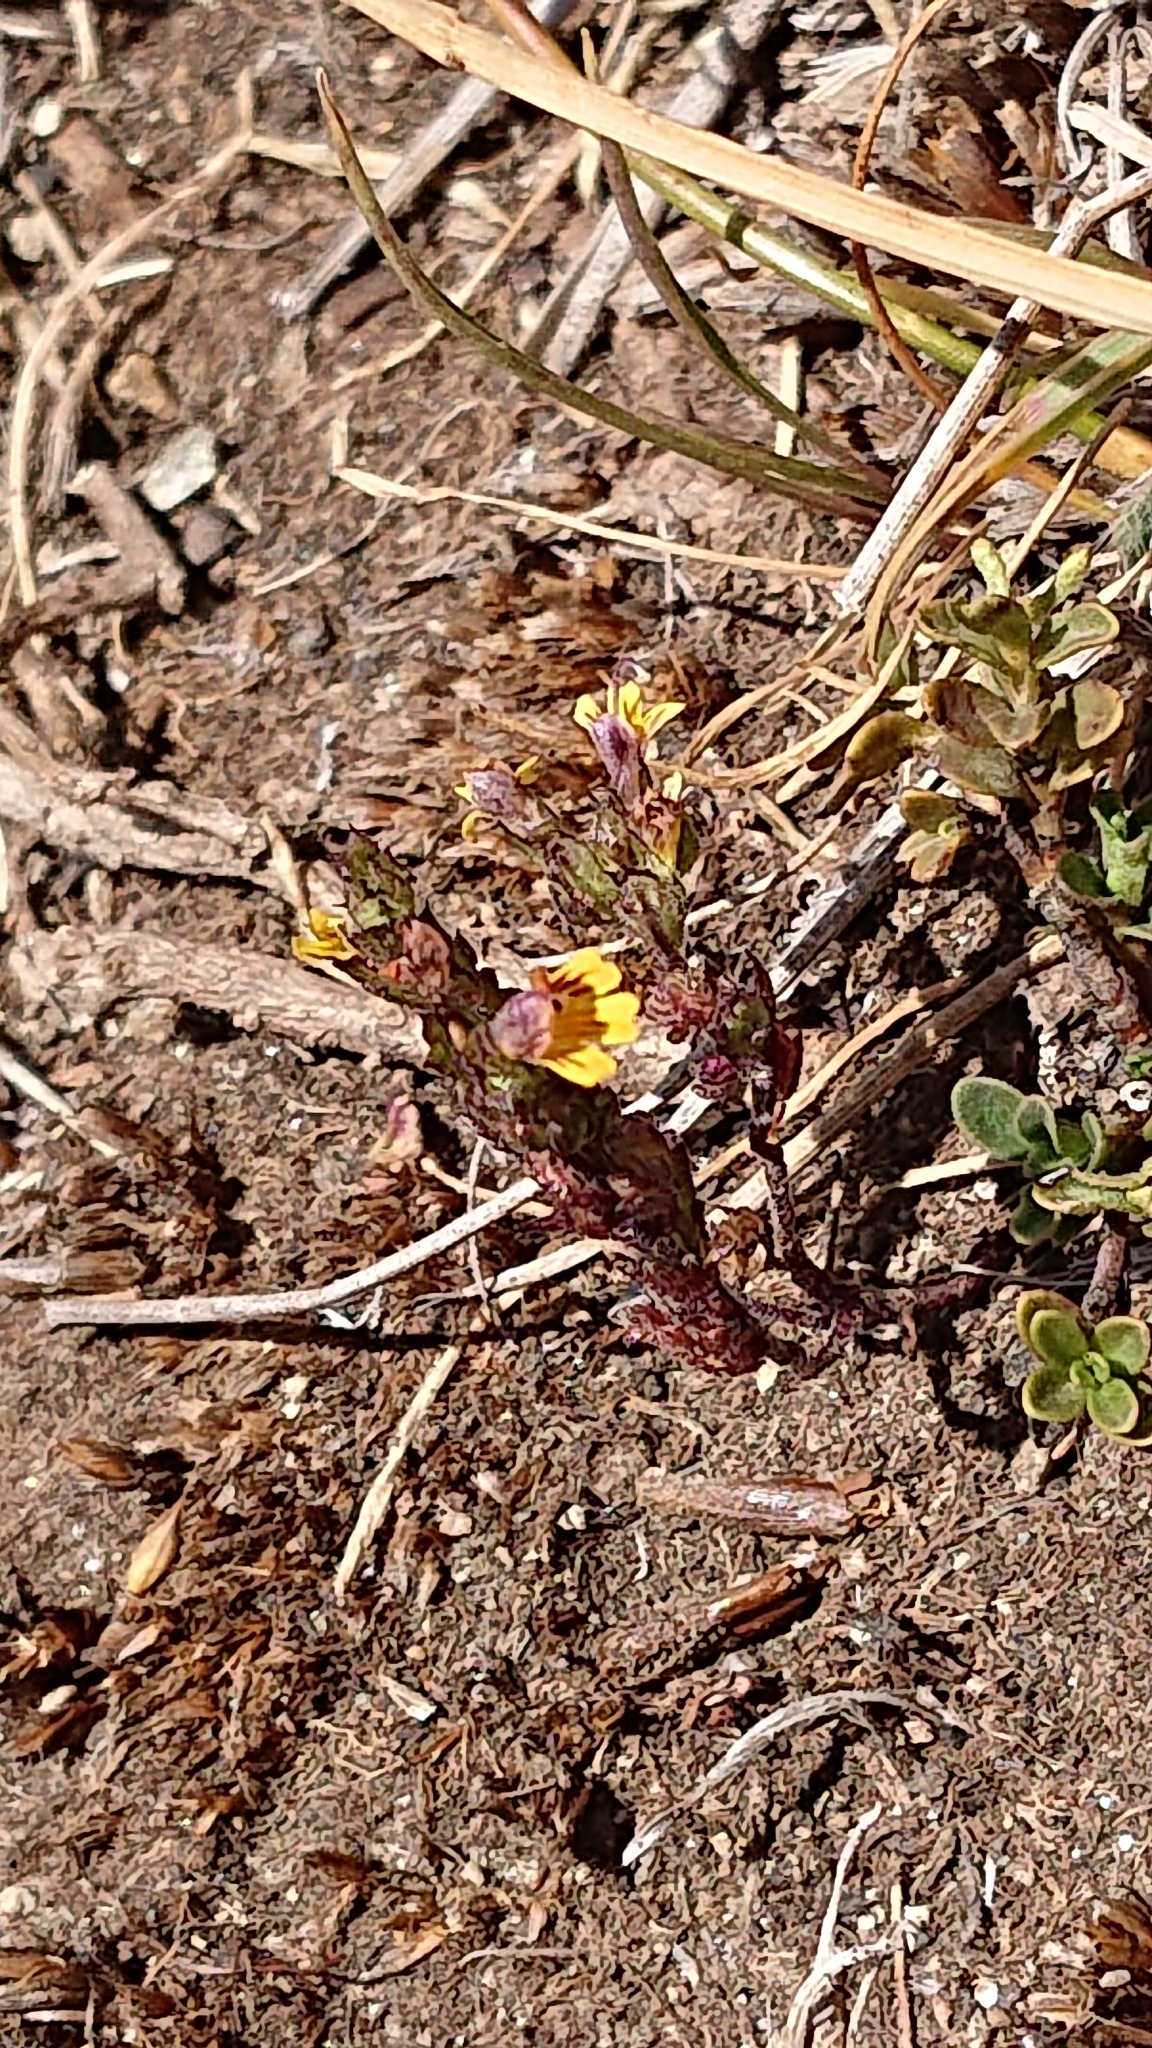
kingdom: Plantae
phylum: Tracheophyta
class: Magnoliopsida
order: Lamiales
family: Orobanchaceae
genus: Euphrasia
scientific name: Euphrasia minima
